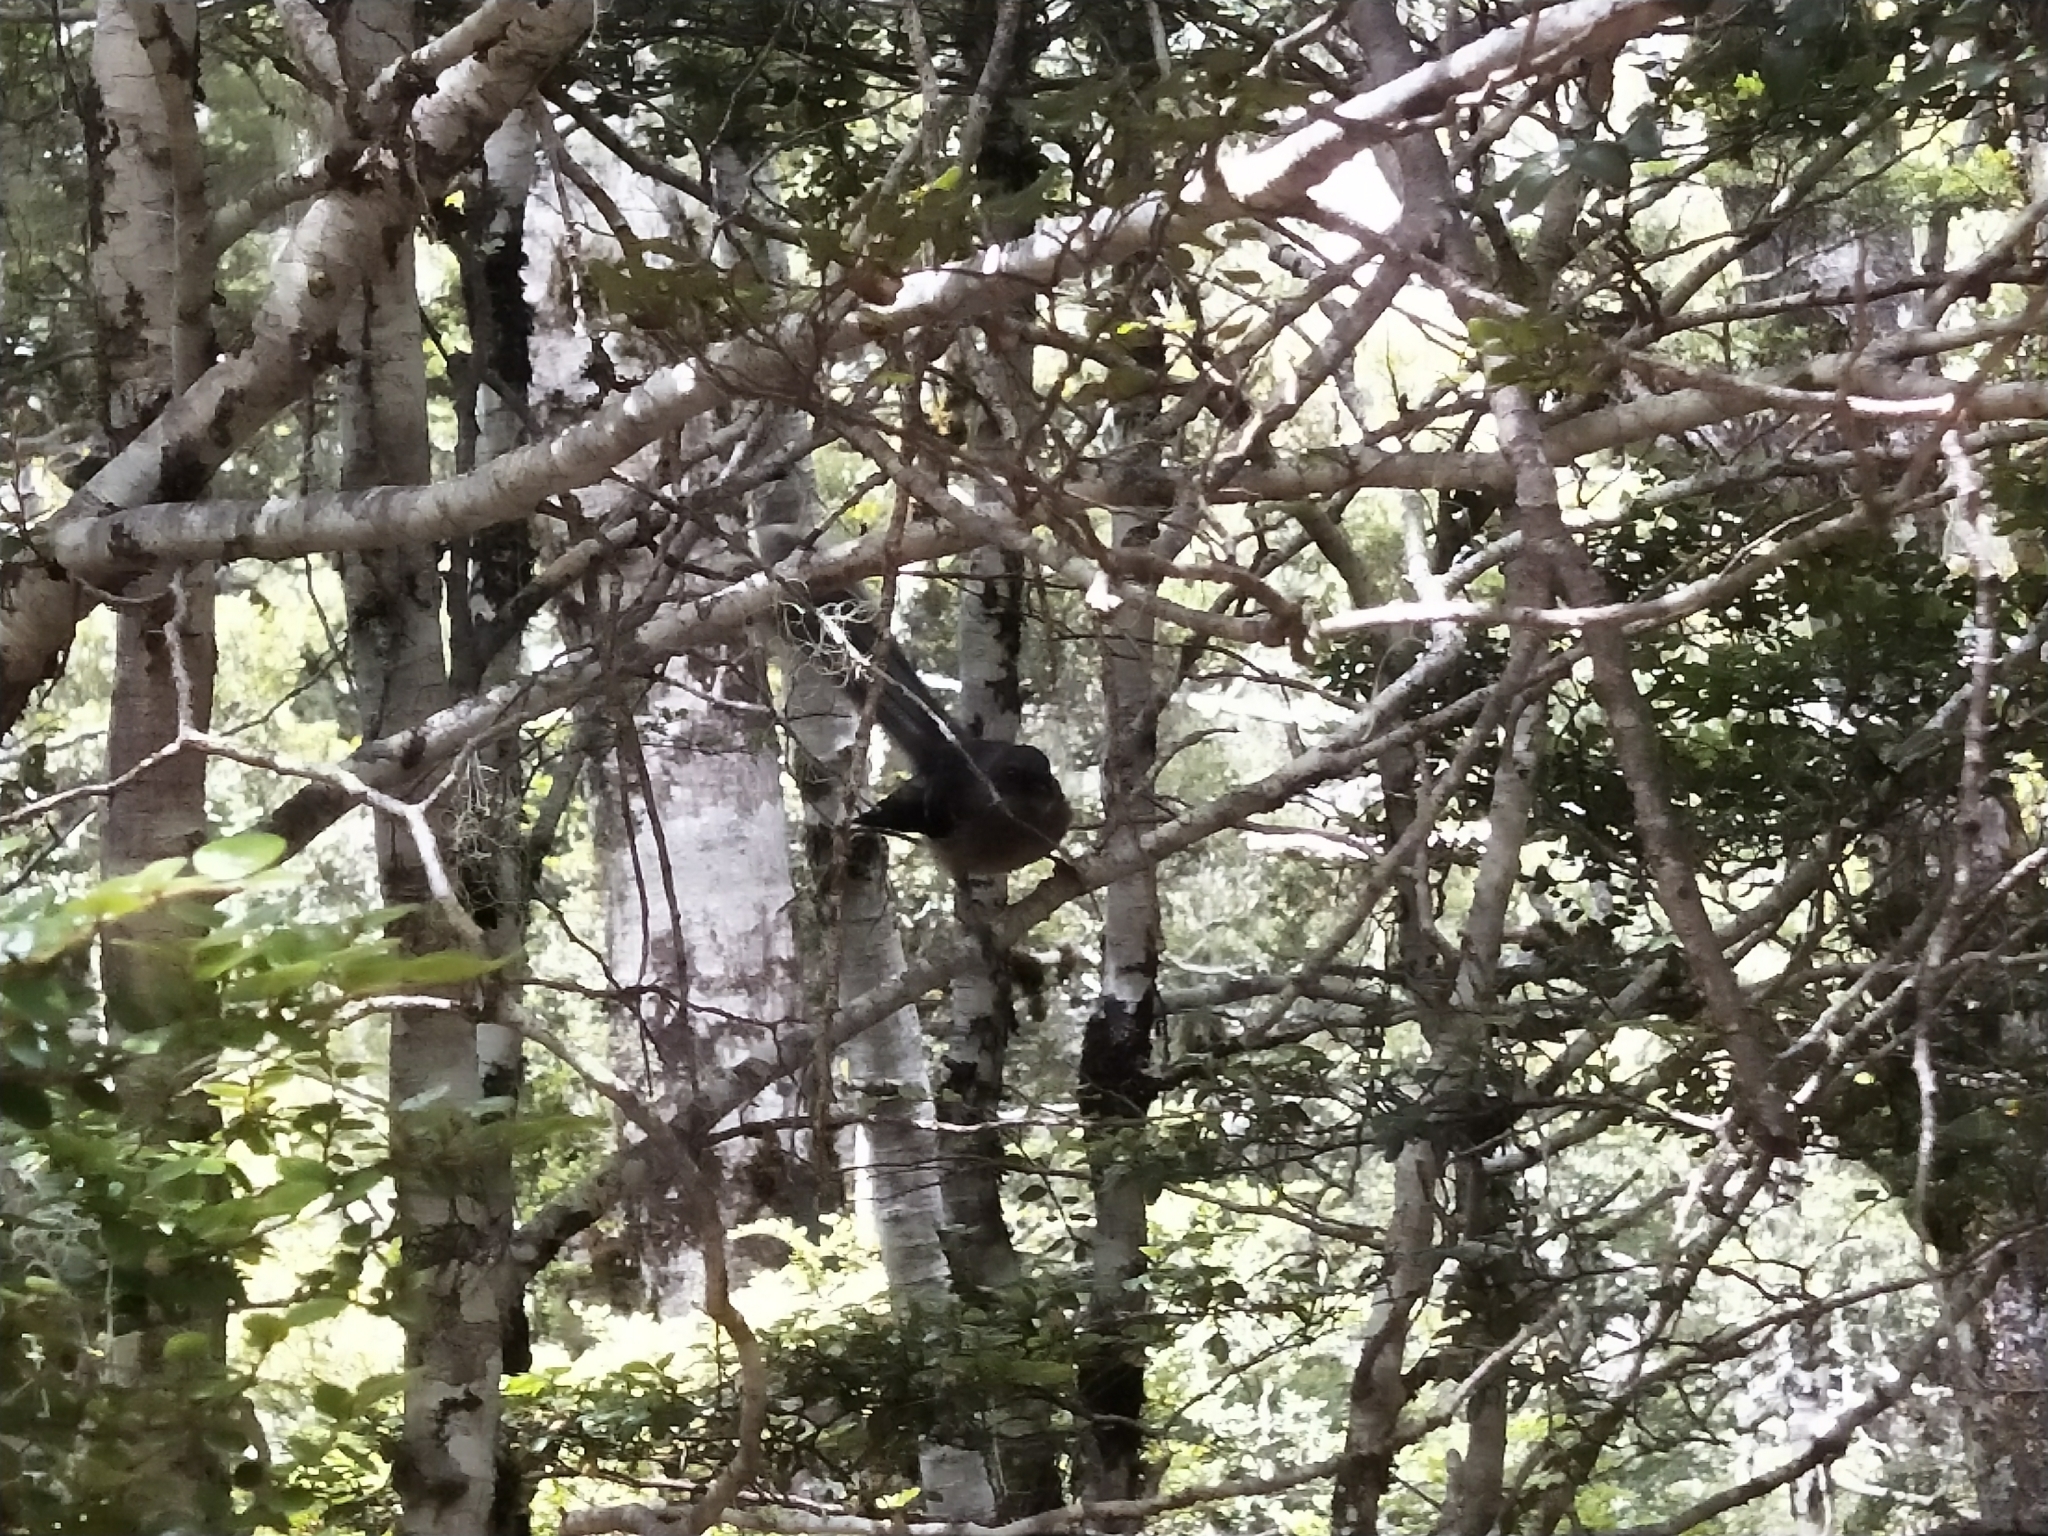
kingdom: Animalia
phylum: Chordata
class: Aves
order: Passeriformes
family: Rhipiduridae
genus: Rhipidura
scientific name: Rhipidura fuliginosa
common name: New zealand fantail
